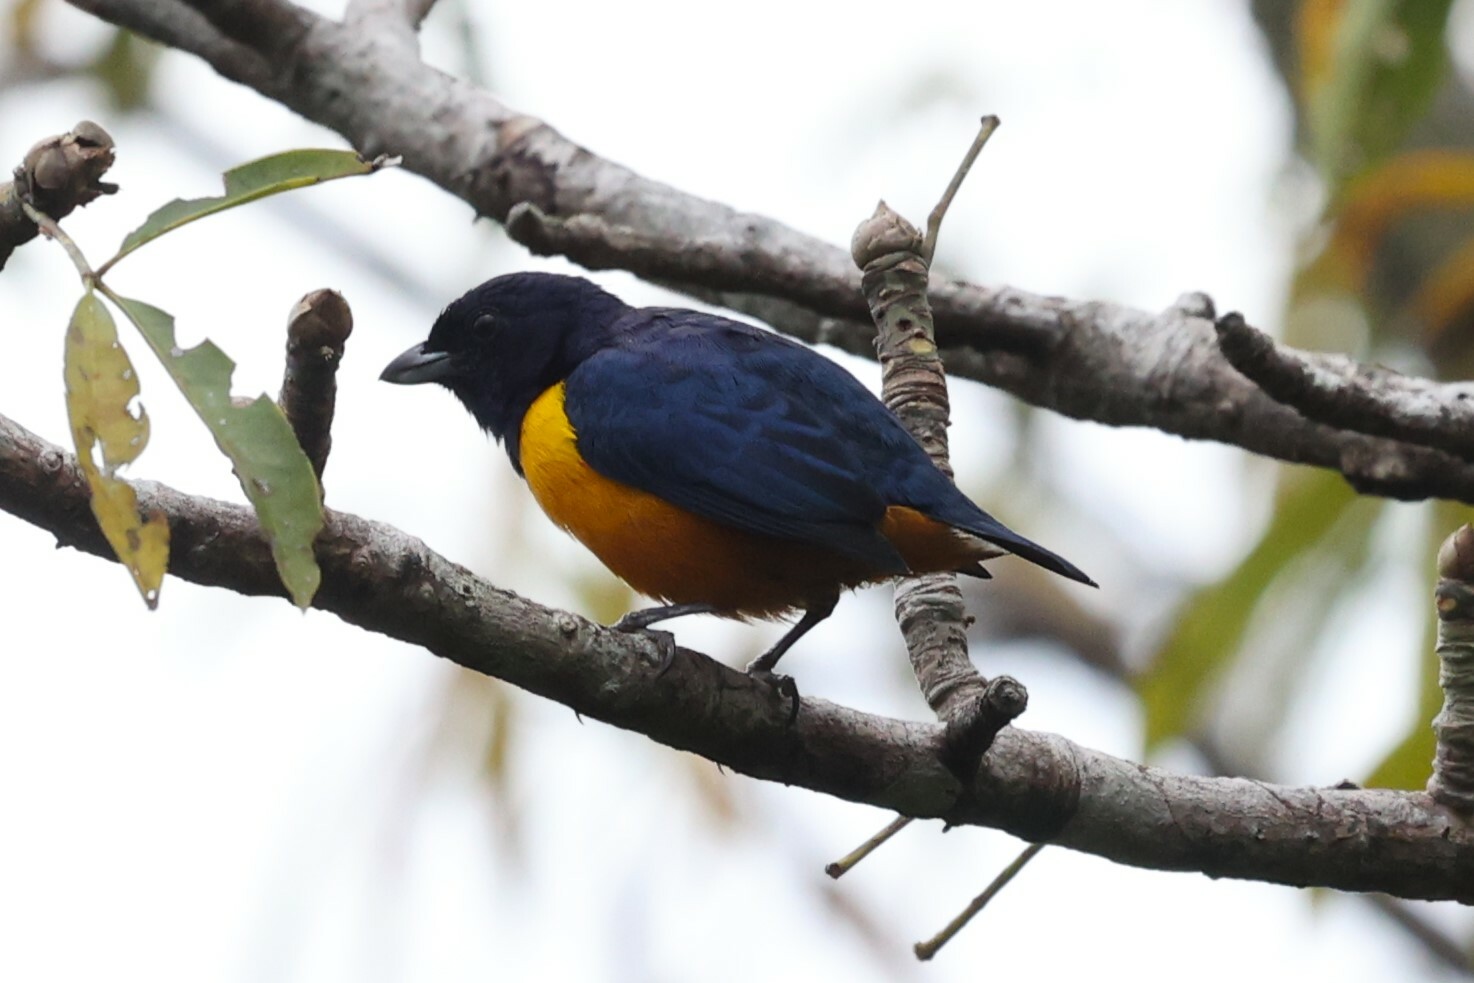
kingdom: Animalia
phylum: Chordata
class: Aves
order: Passeriformes
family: Fringillidae
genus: Euphonia
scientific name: Euphonia rufiventris
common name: Rufous-bellied euphonia
